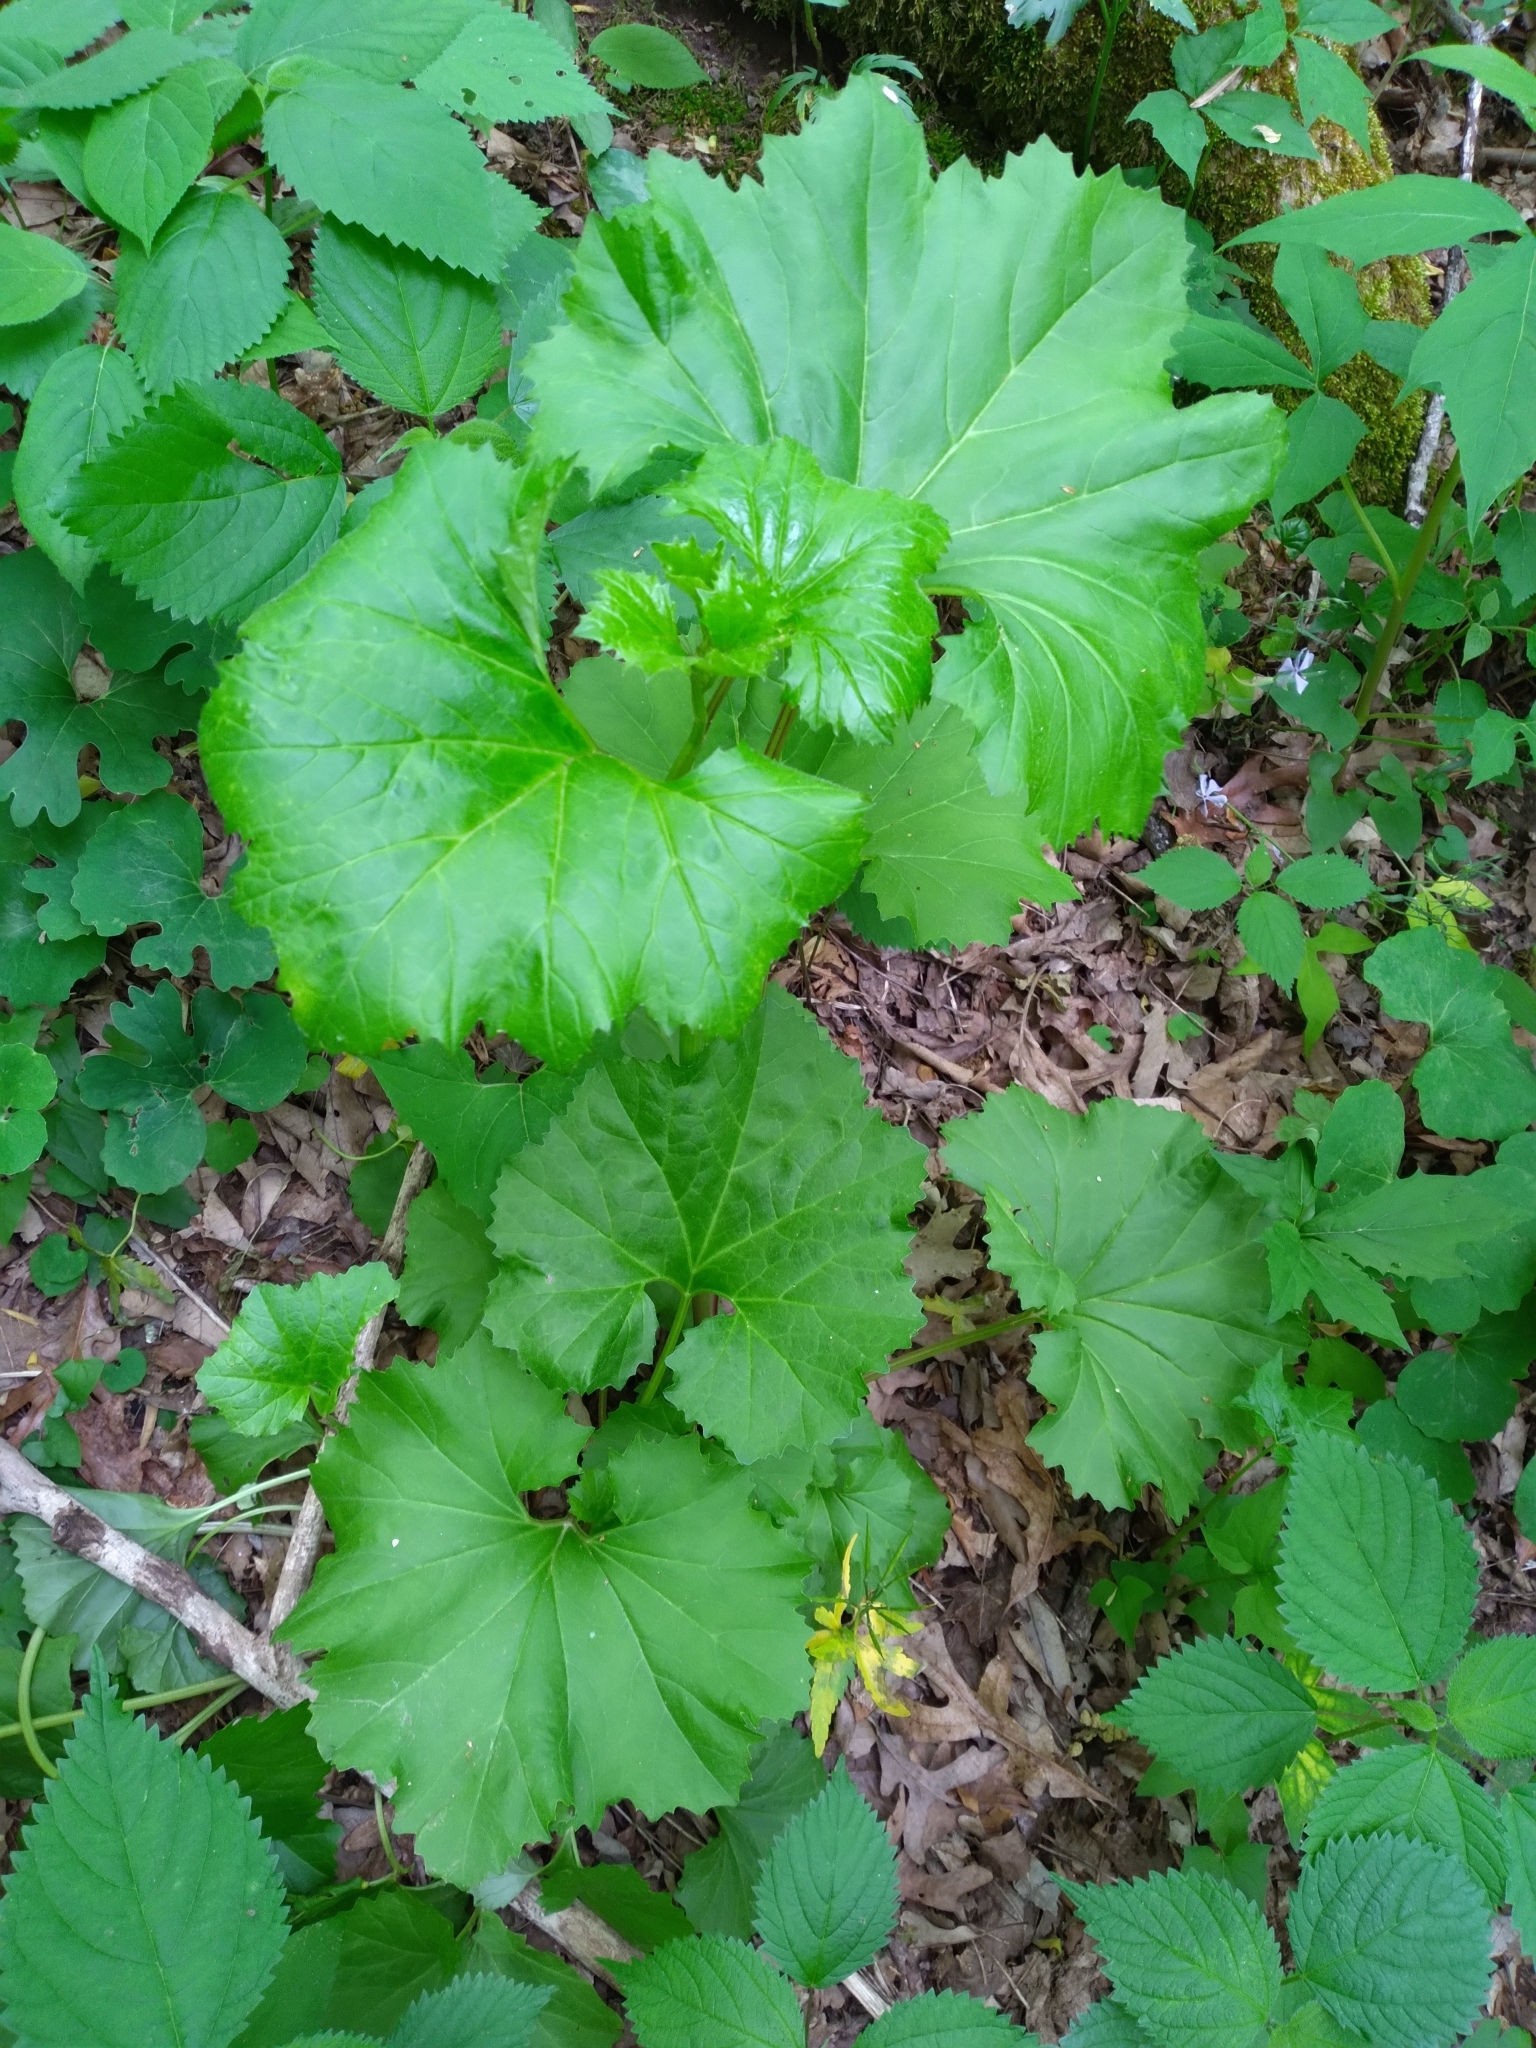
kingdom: Plantae
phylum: Tracheophyta
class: Magnoliopsida
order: Asterales
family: Asteraceae
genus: Arnoglossum
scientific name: Arnoglossum reniforme
